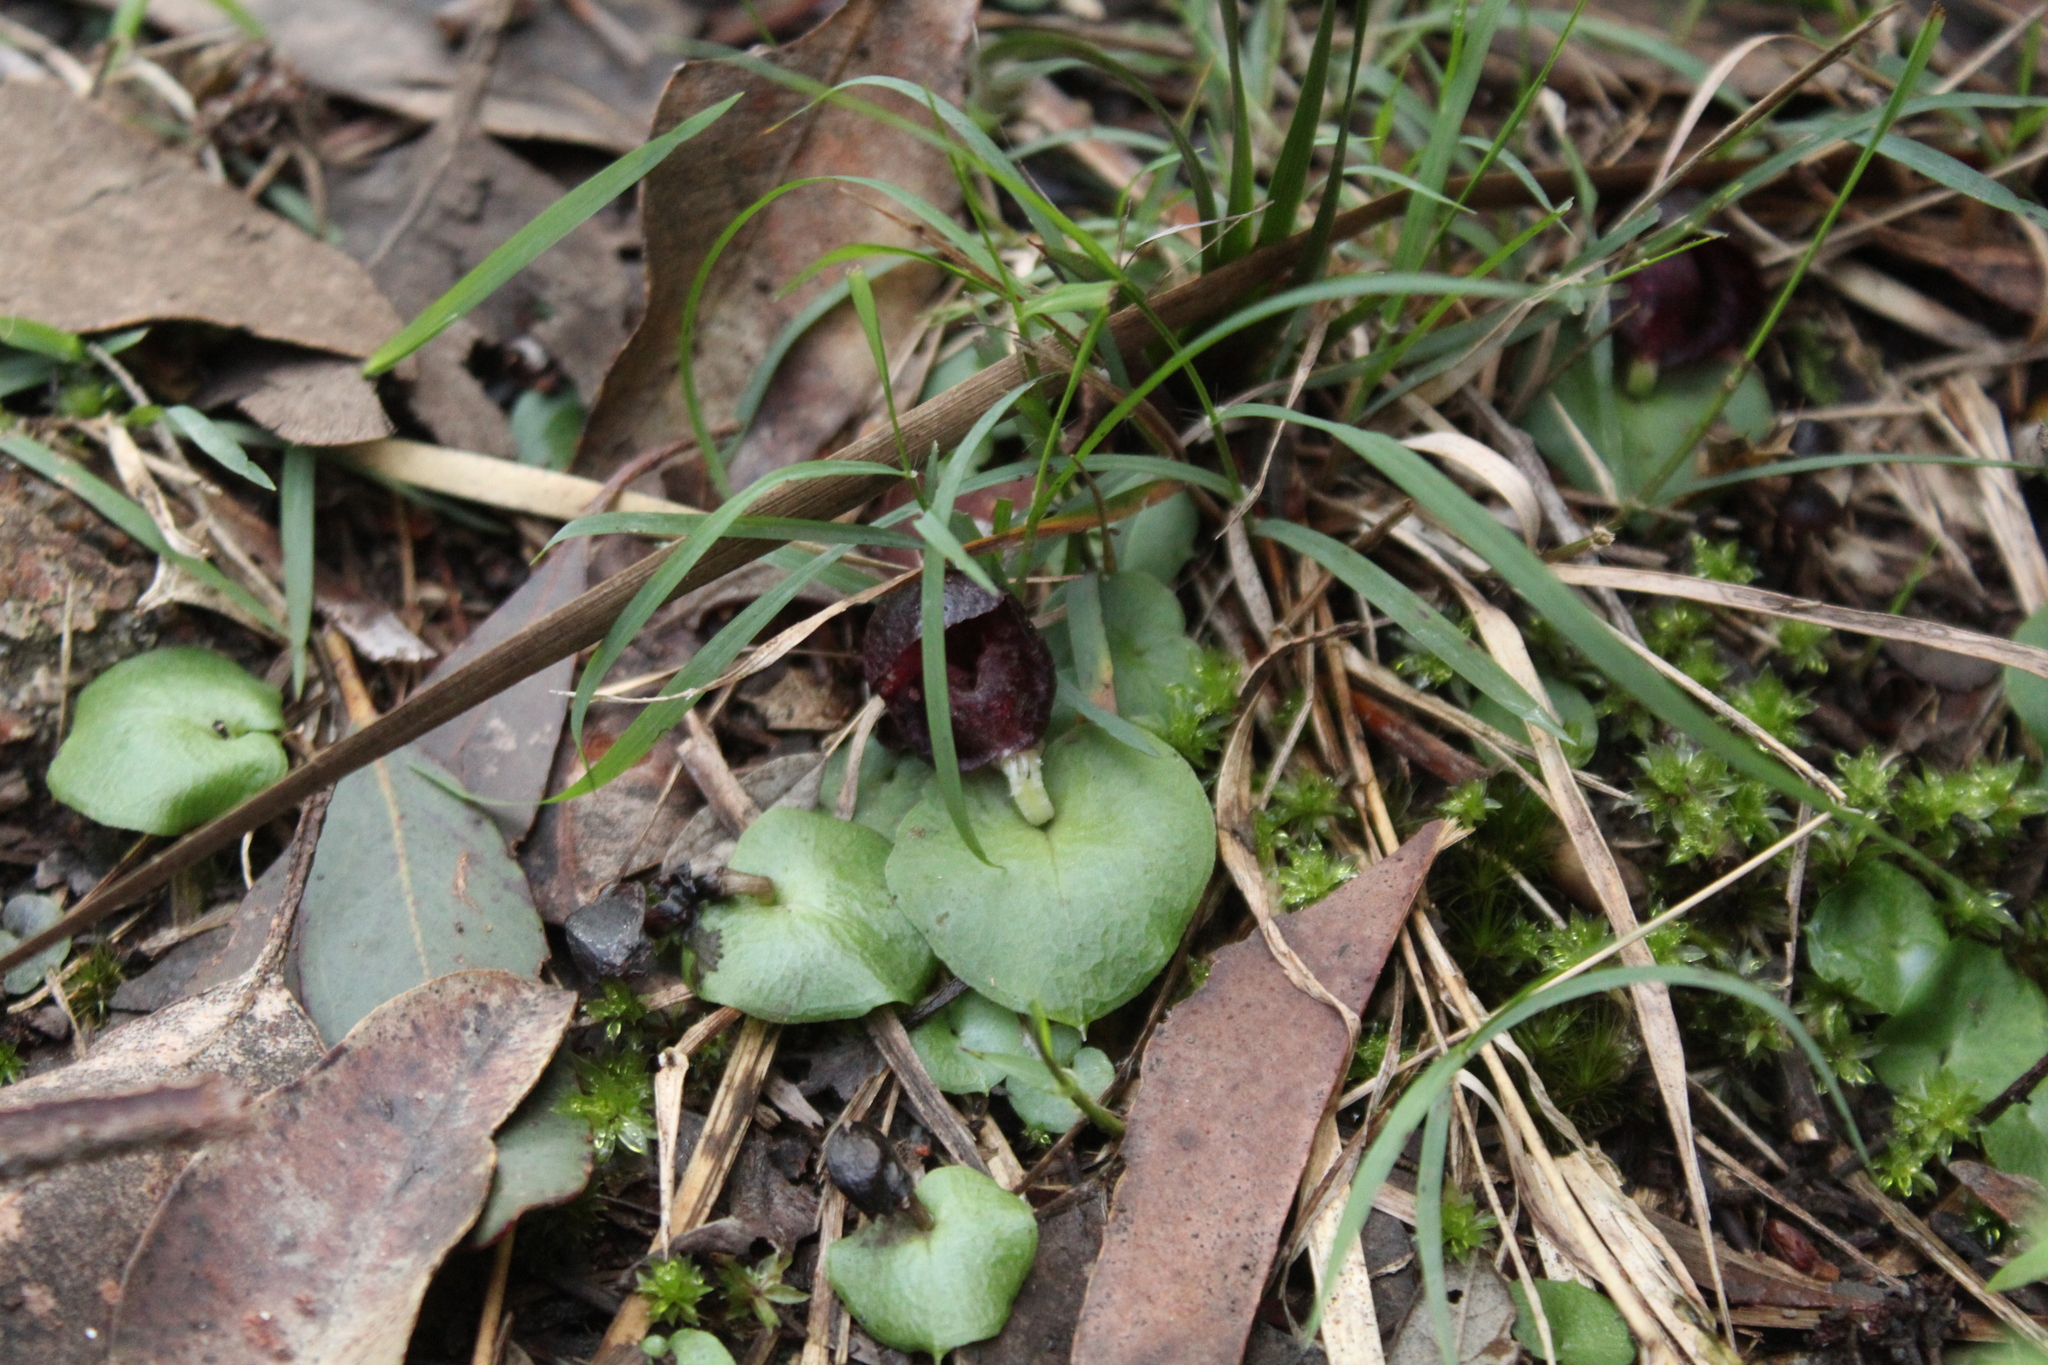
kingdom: Plantae
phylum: Tracheophyta
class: Liliopsida
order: Asparagales
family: Orchidaceae
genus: Corybas
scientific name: Corybas recurvus
